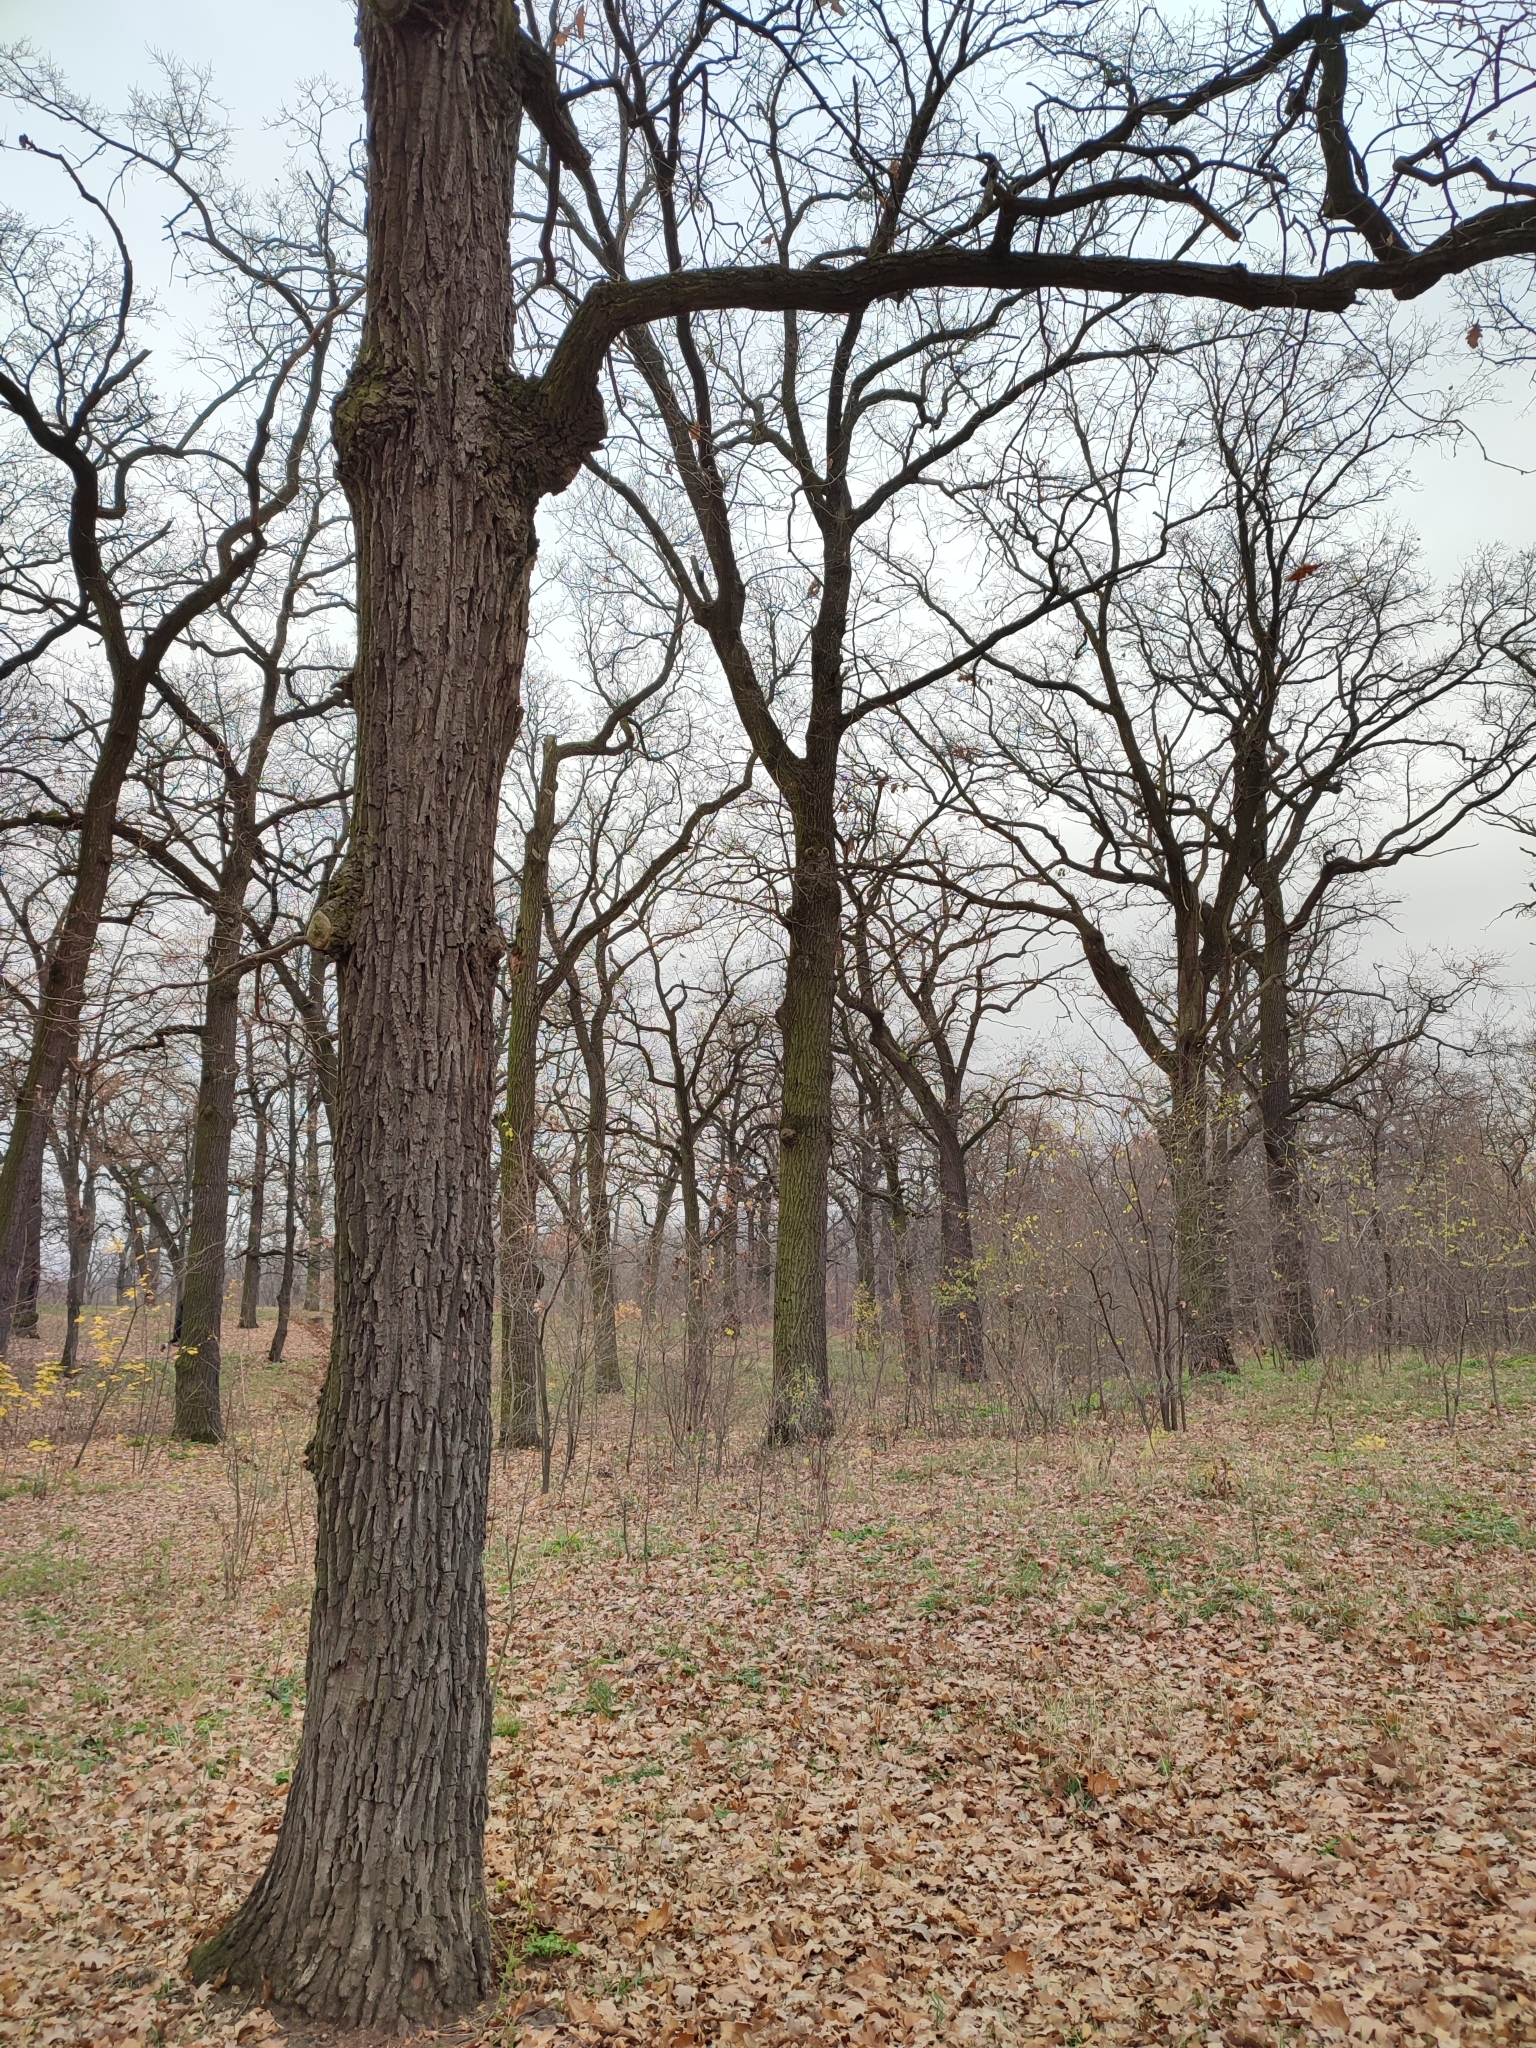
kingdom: Plantae
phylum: Tracheophyta
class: Magnoliopsida
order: Fagales
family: Fagaceae
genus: Quercus
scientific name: Quercus robur
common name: Pedunculate oak
